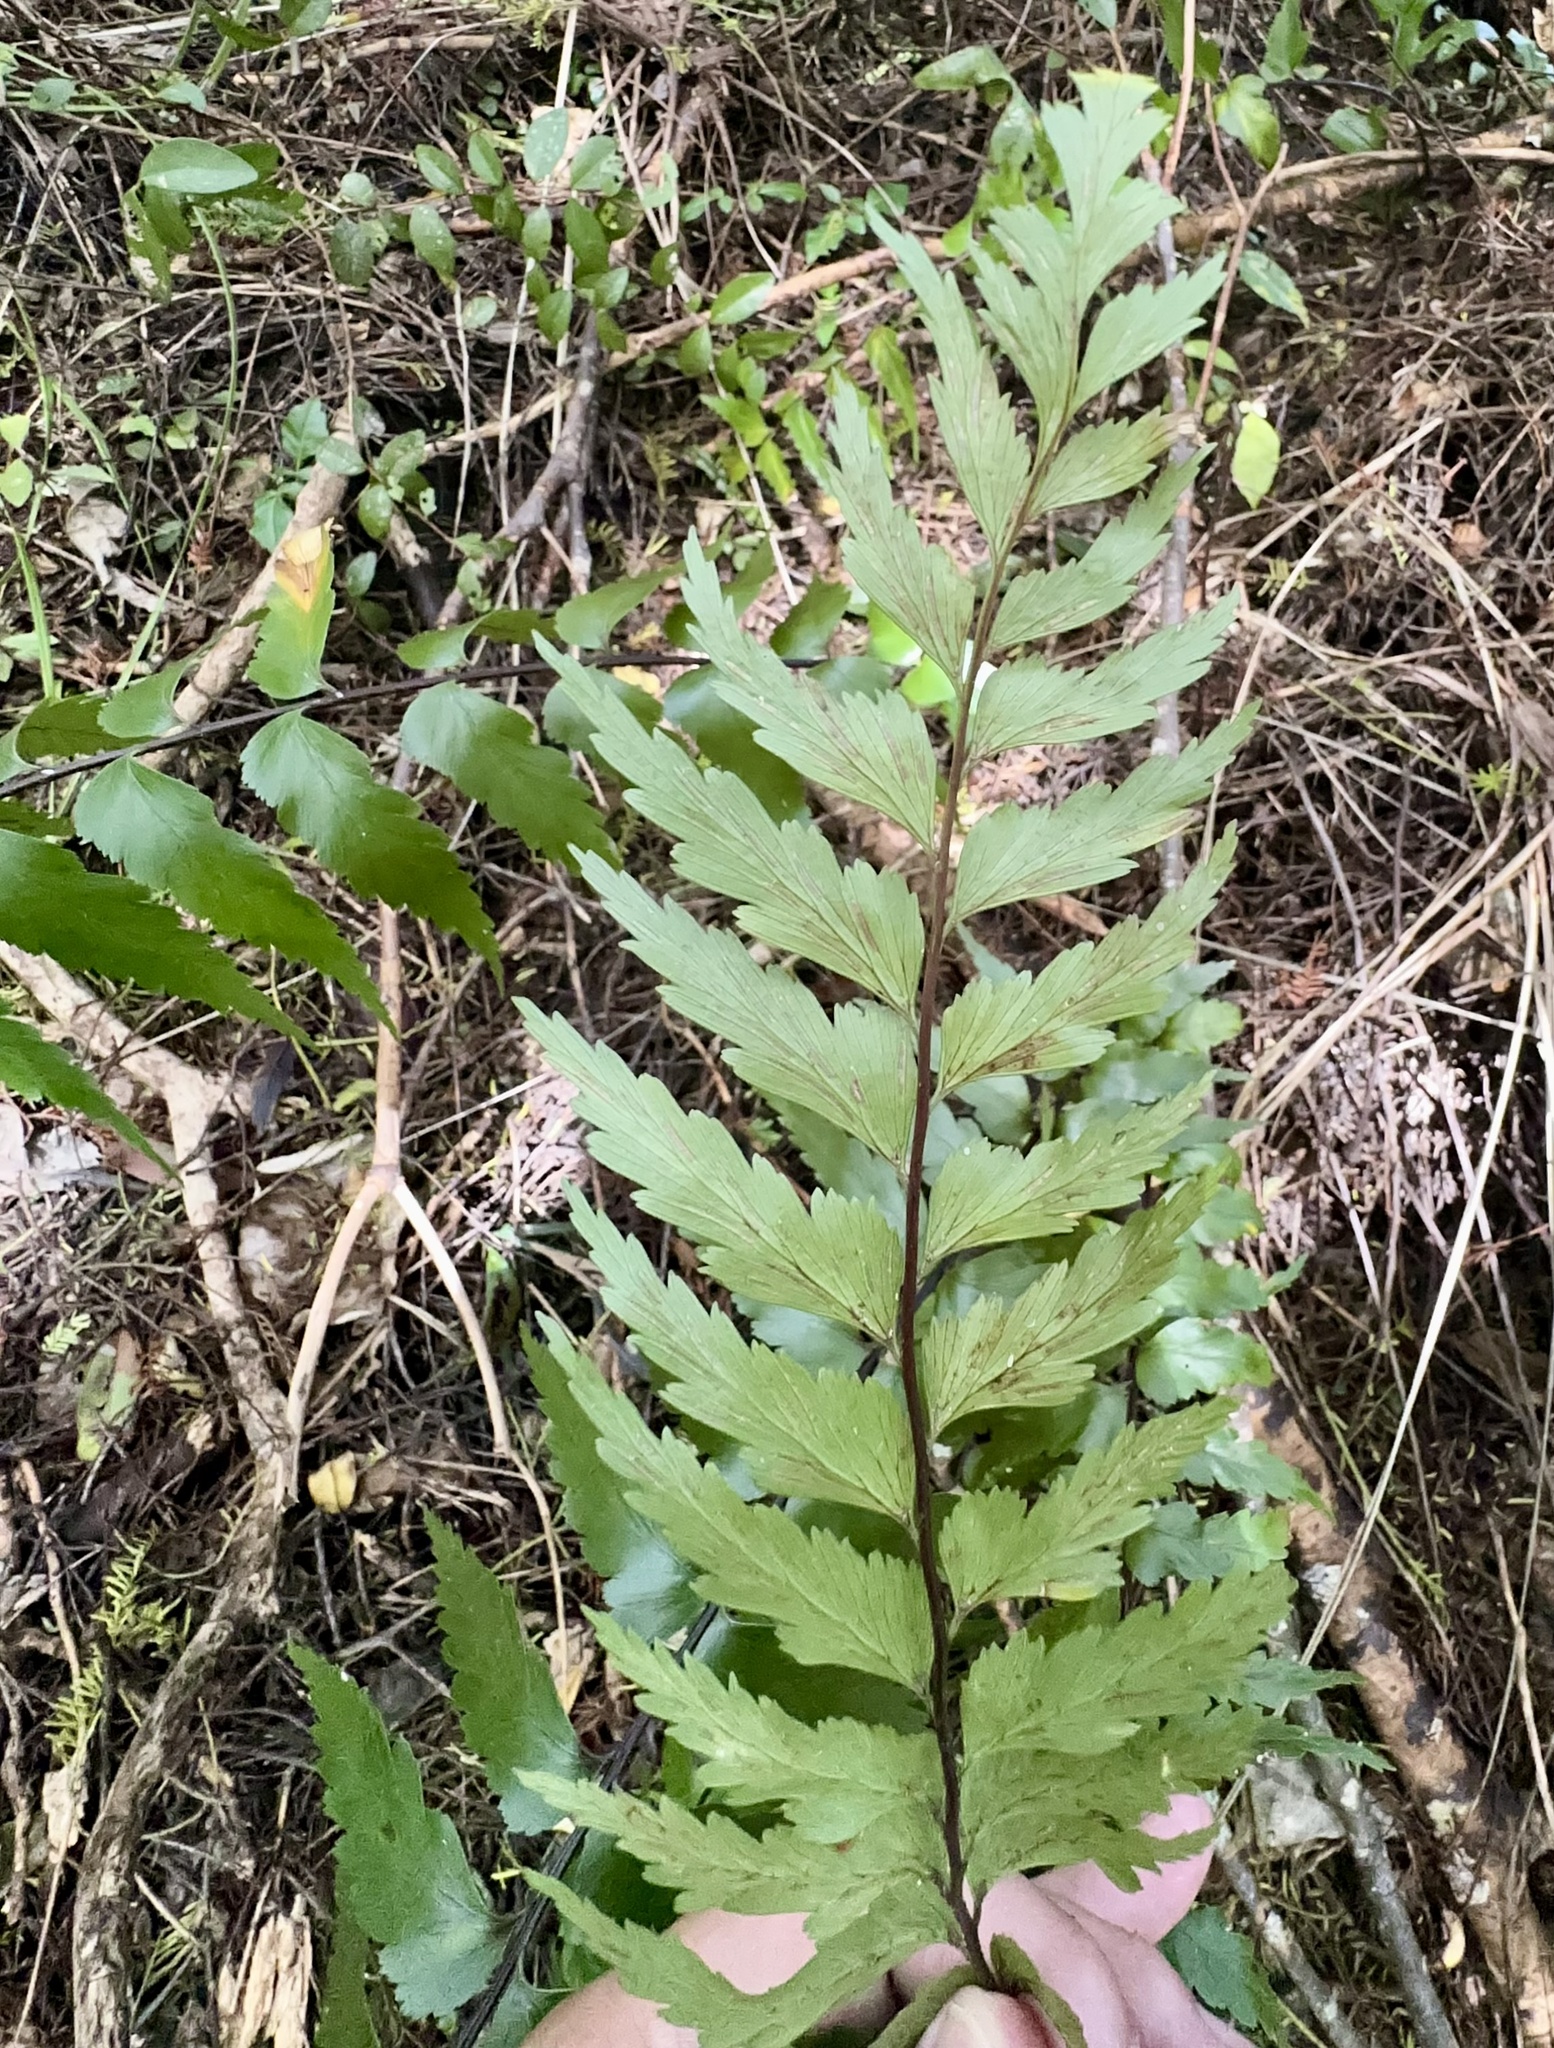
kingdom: Plantae
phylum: Tracheophyta
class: Polypodiopsida
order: Polypodiales
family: Aspleniaceae
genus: Asplenium
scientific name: Asplenium polyodon
